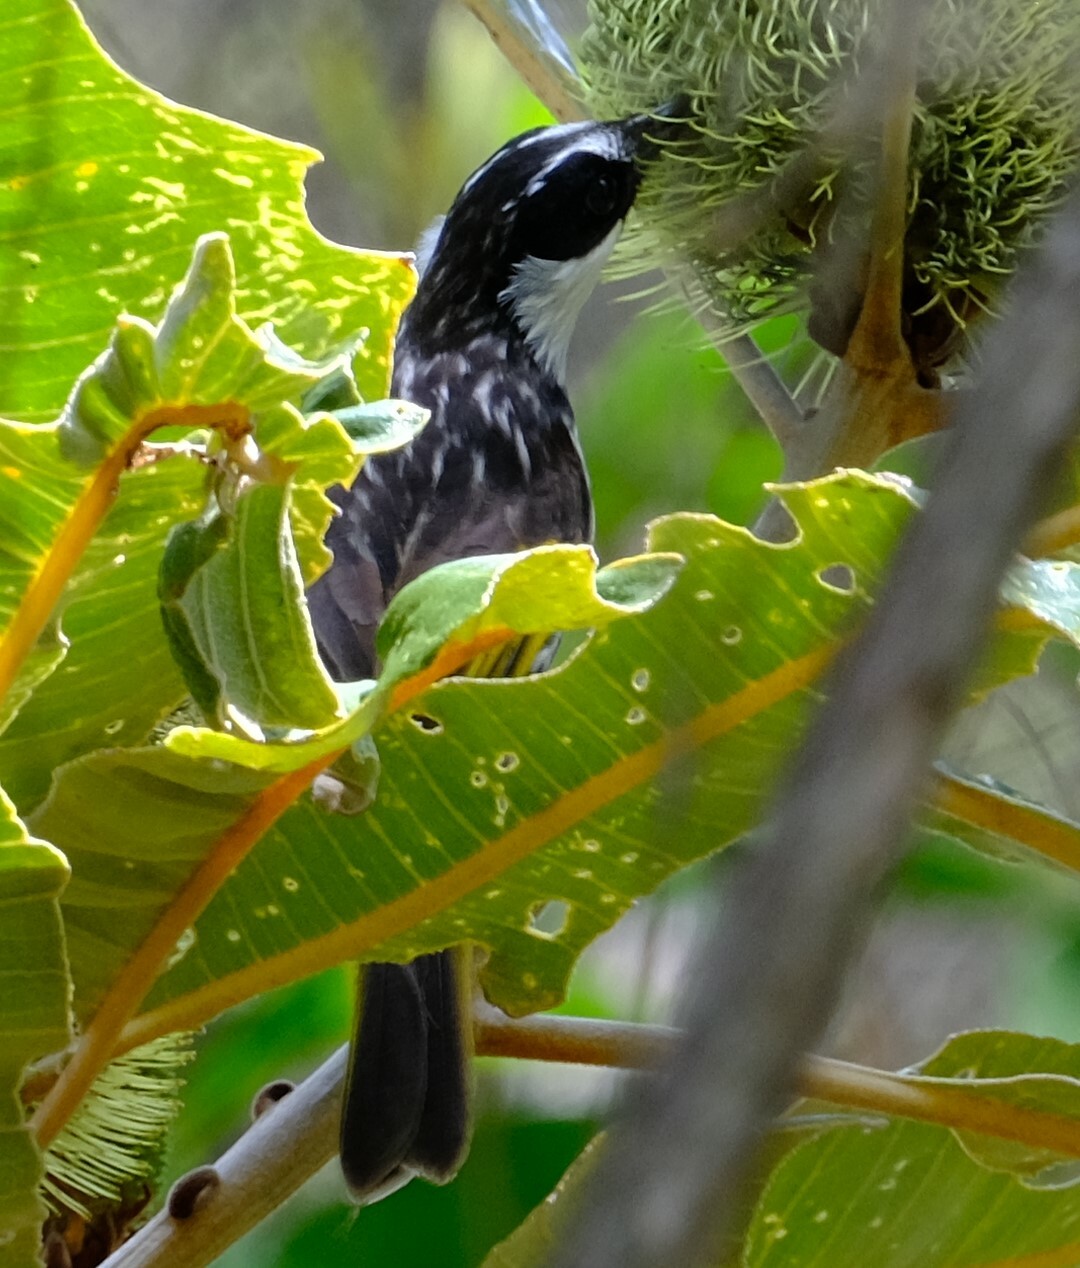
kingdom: Animalia
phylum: Chordata
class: Aves
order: Passeriformes
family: Meliphagidae
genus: Phylidonyris
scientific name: Phylidonyris niger
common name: White-cheeked honeyeater
